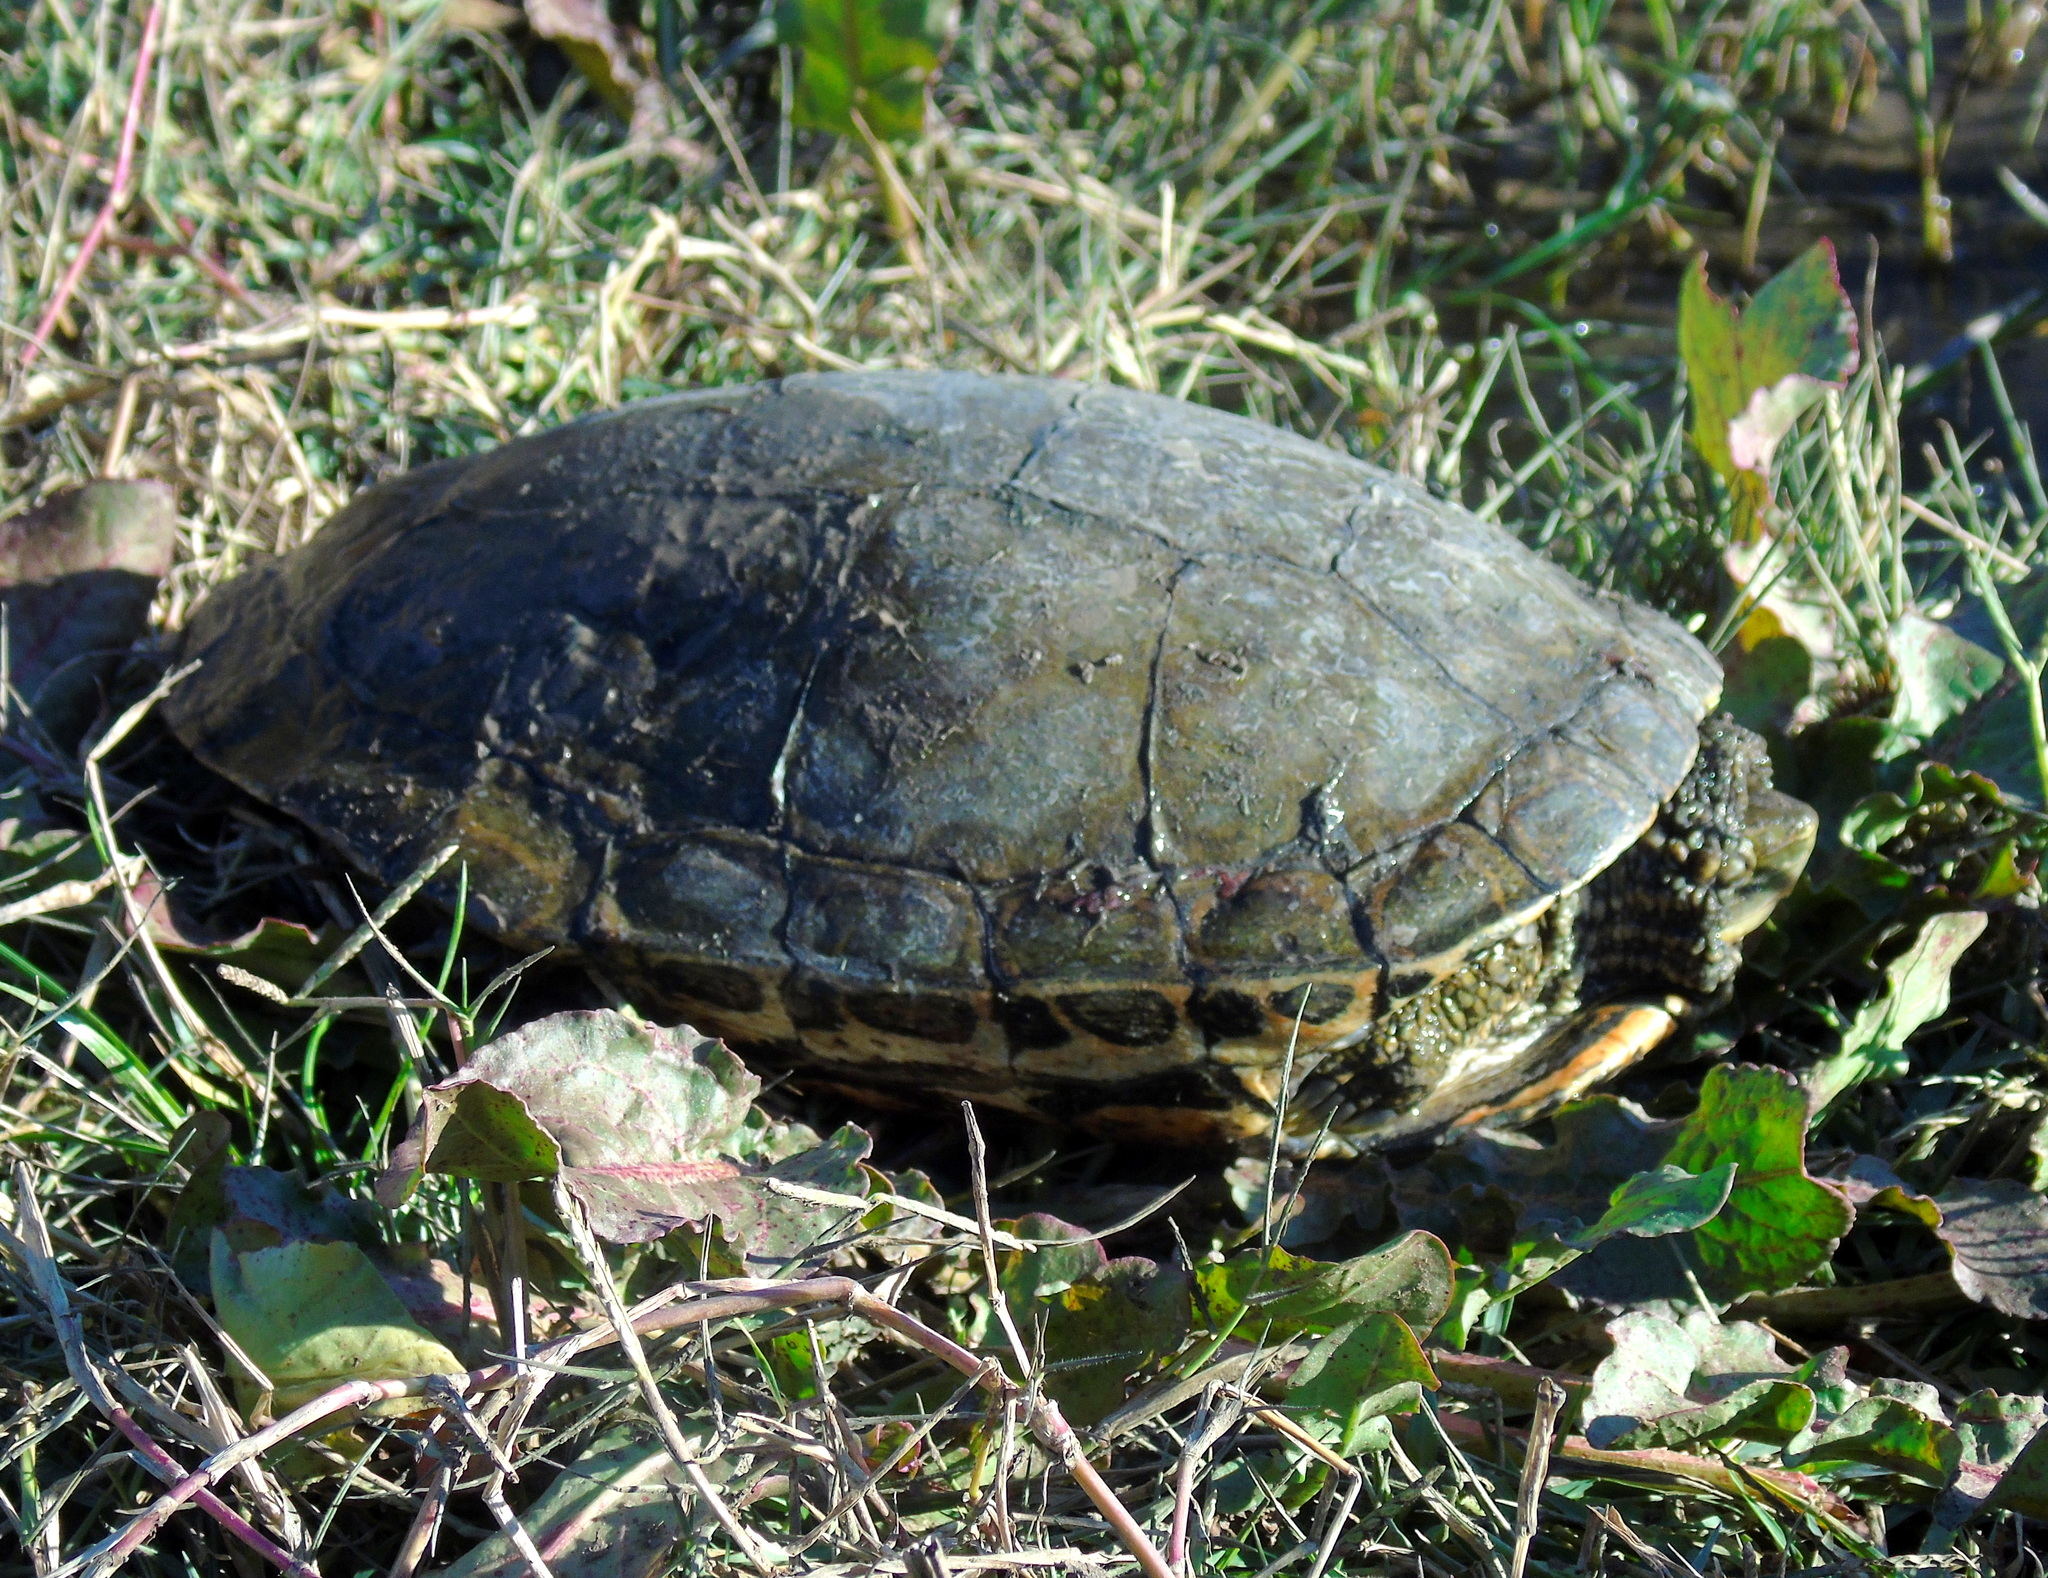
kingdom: Animalia
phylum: Chordata
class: Testudines
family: Geoemydidae
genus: Mauremys
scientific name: Mauremys caspica
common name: Caspian turtle
